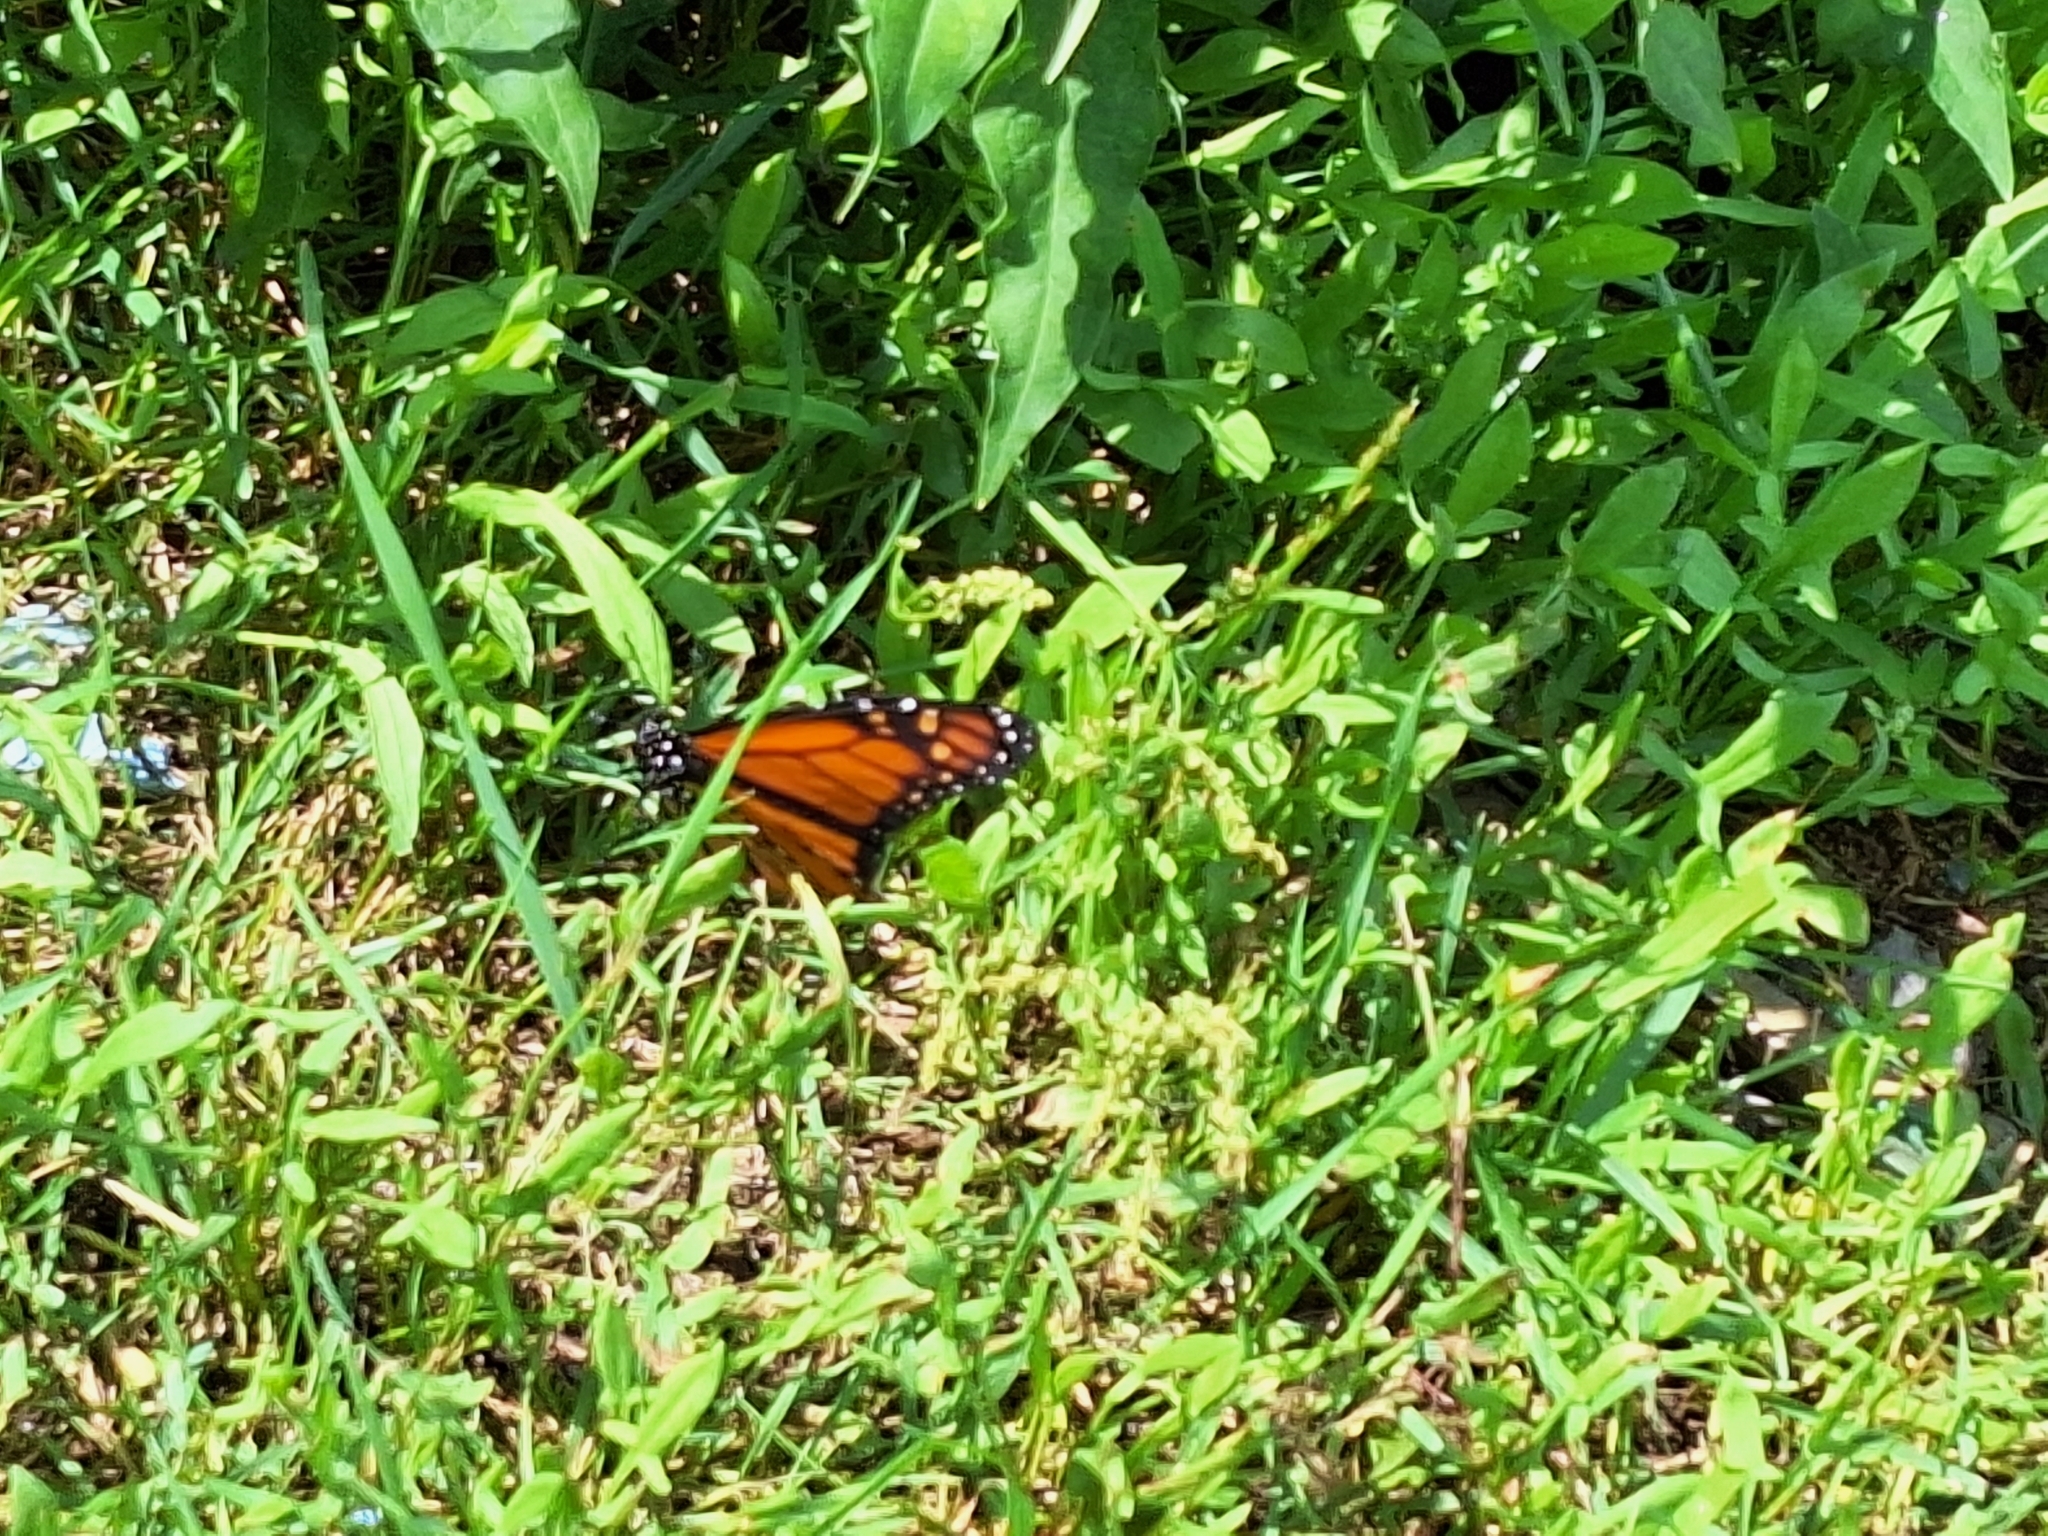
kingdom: Animalia
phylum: Arthropoda
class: Insecta
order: Lepidoptera
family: Nymphalidae
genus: Danaus
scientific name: Danaus plexippus
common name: Monarch
